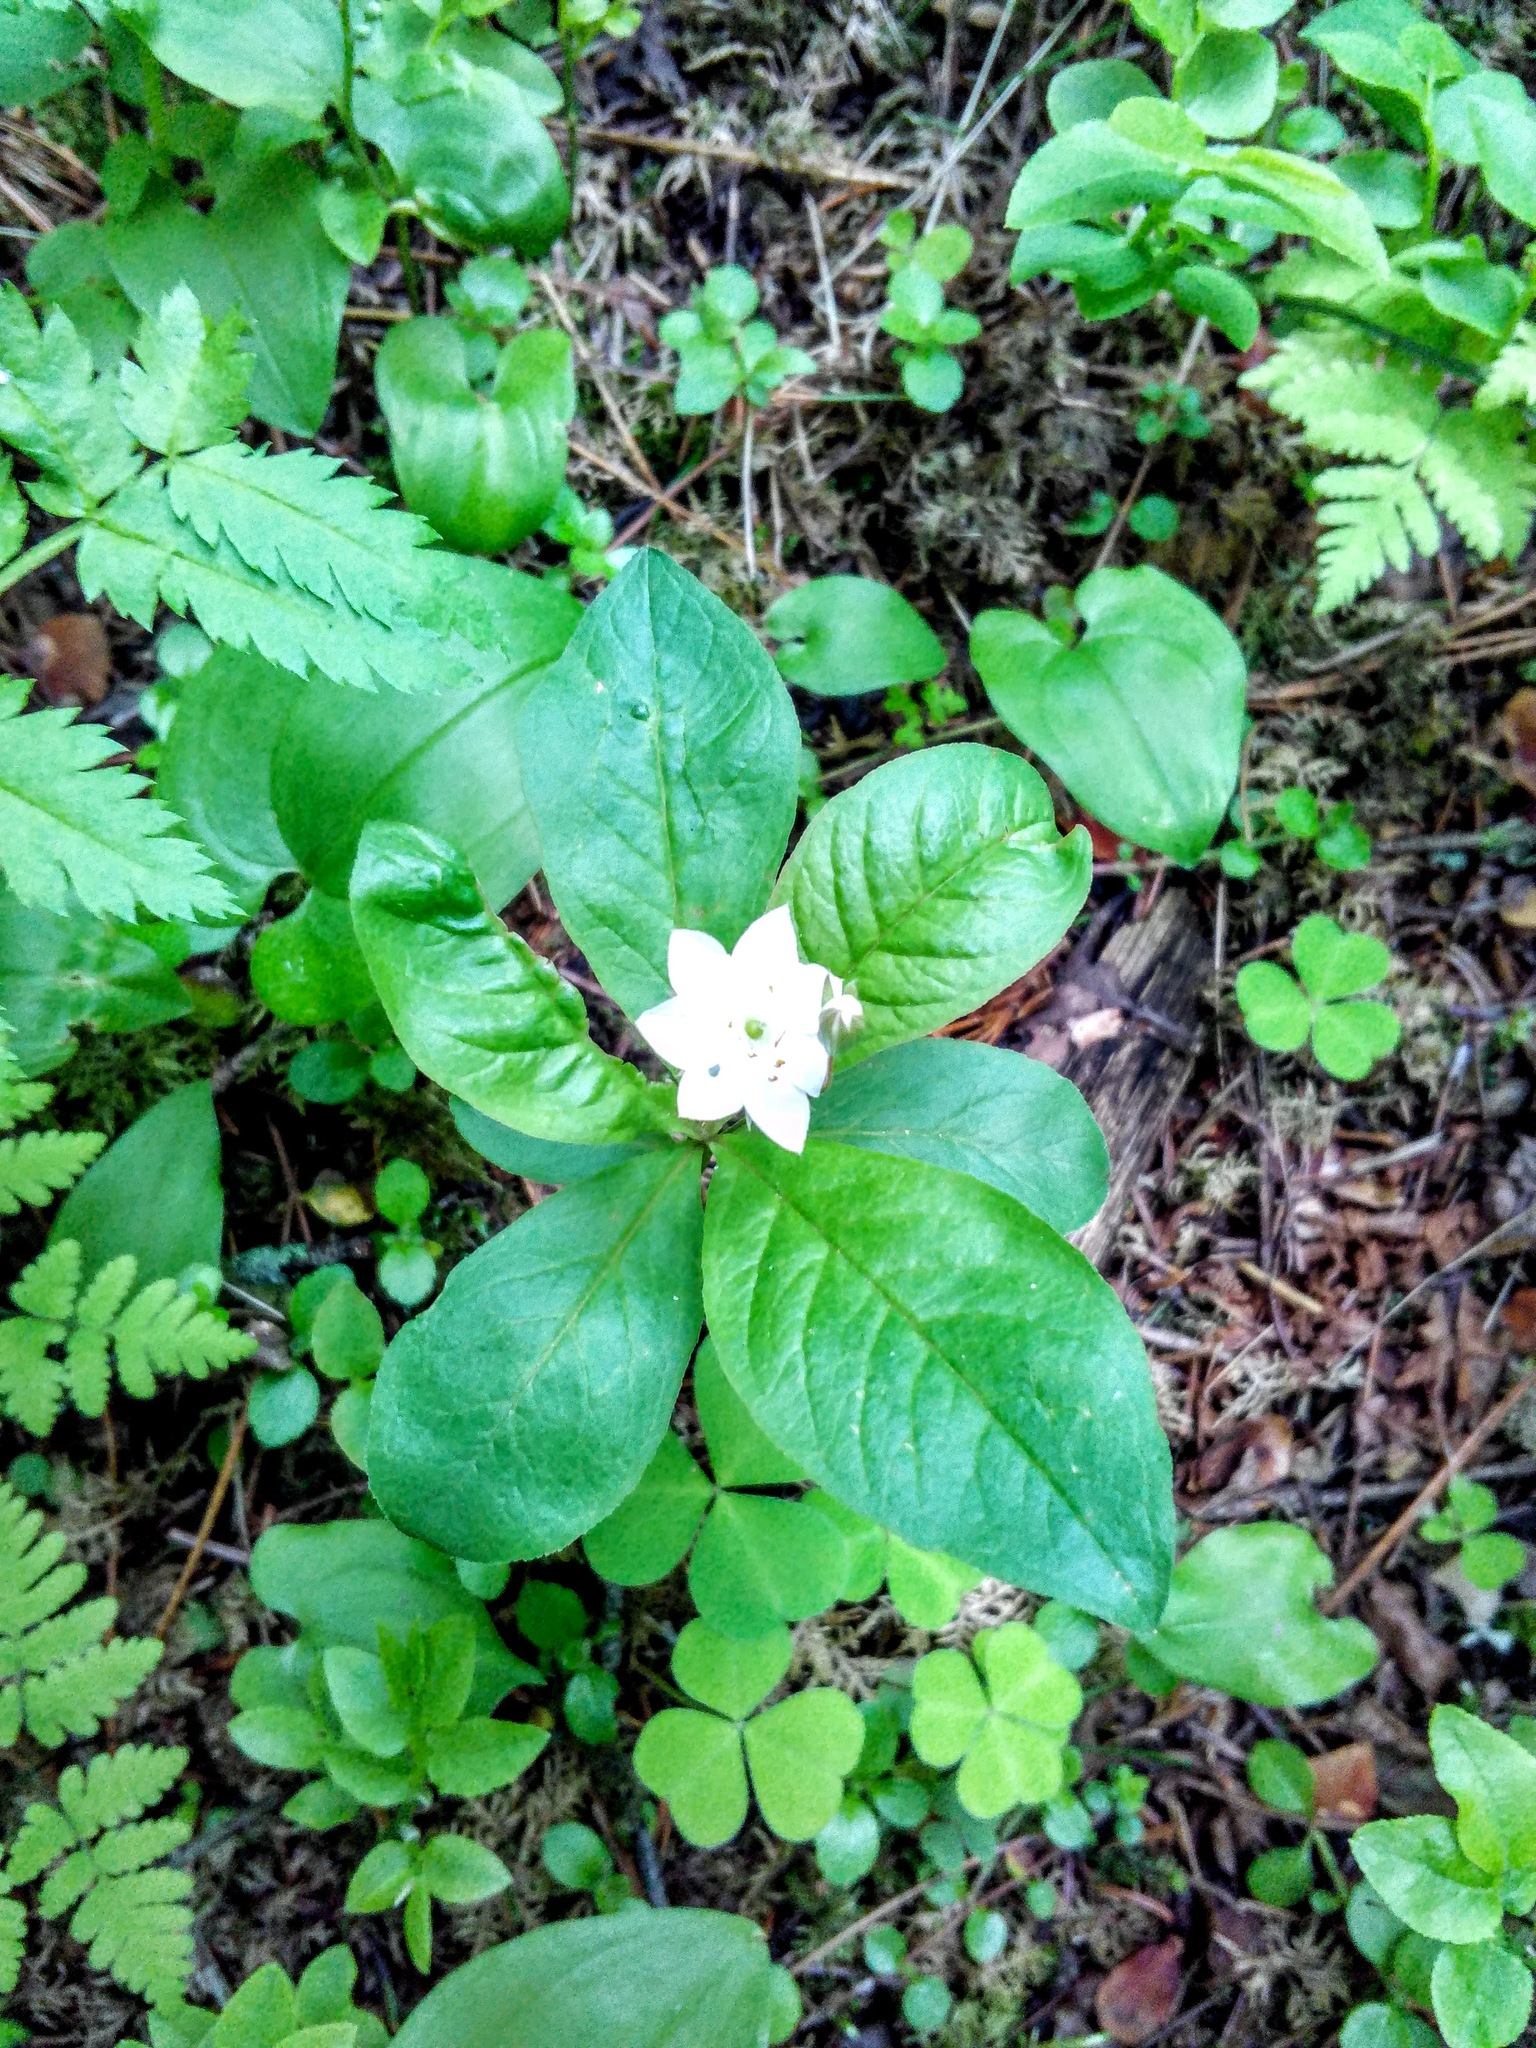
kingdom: Plantae
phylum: Tracheophyta
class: Magnoliopsida
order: Ericales
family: Primulaceae
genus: Lysimachia
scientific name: Lysimachia europaea
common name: Arctic starflower
